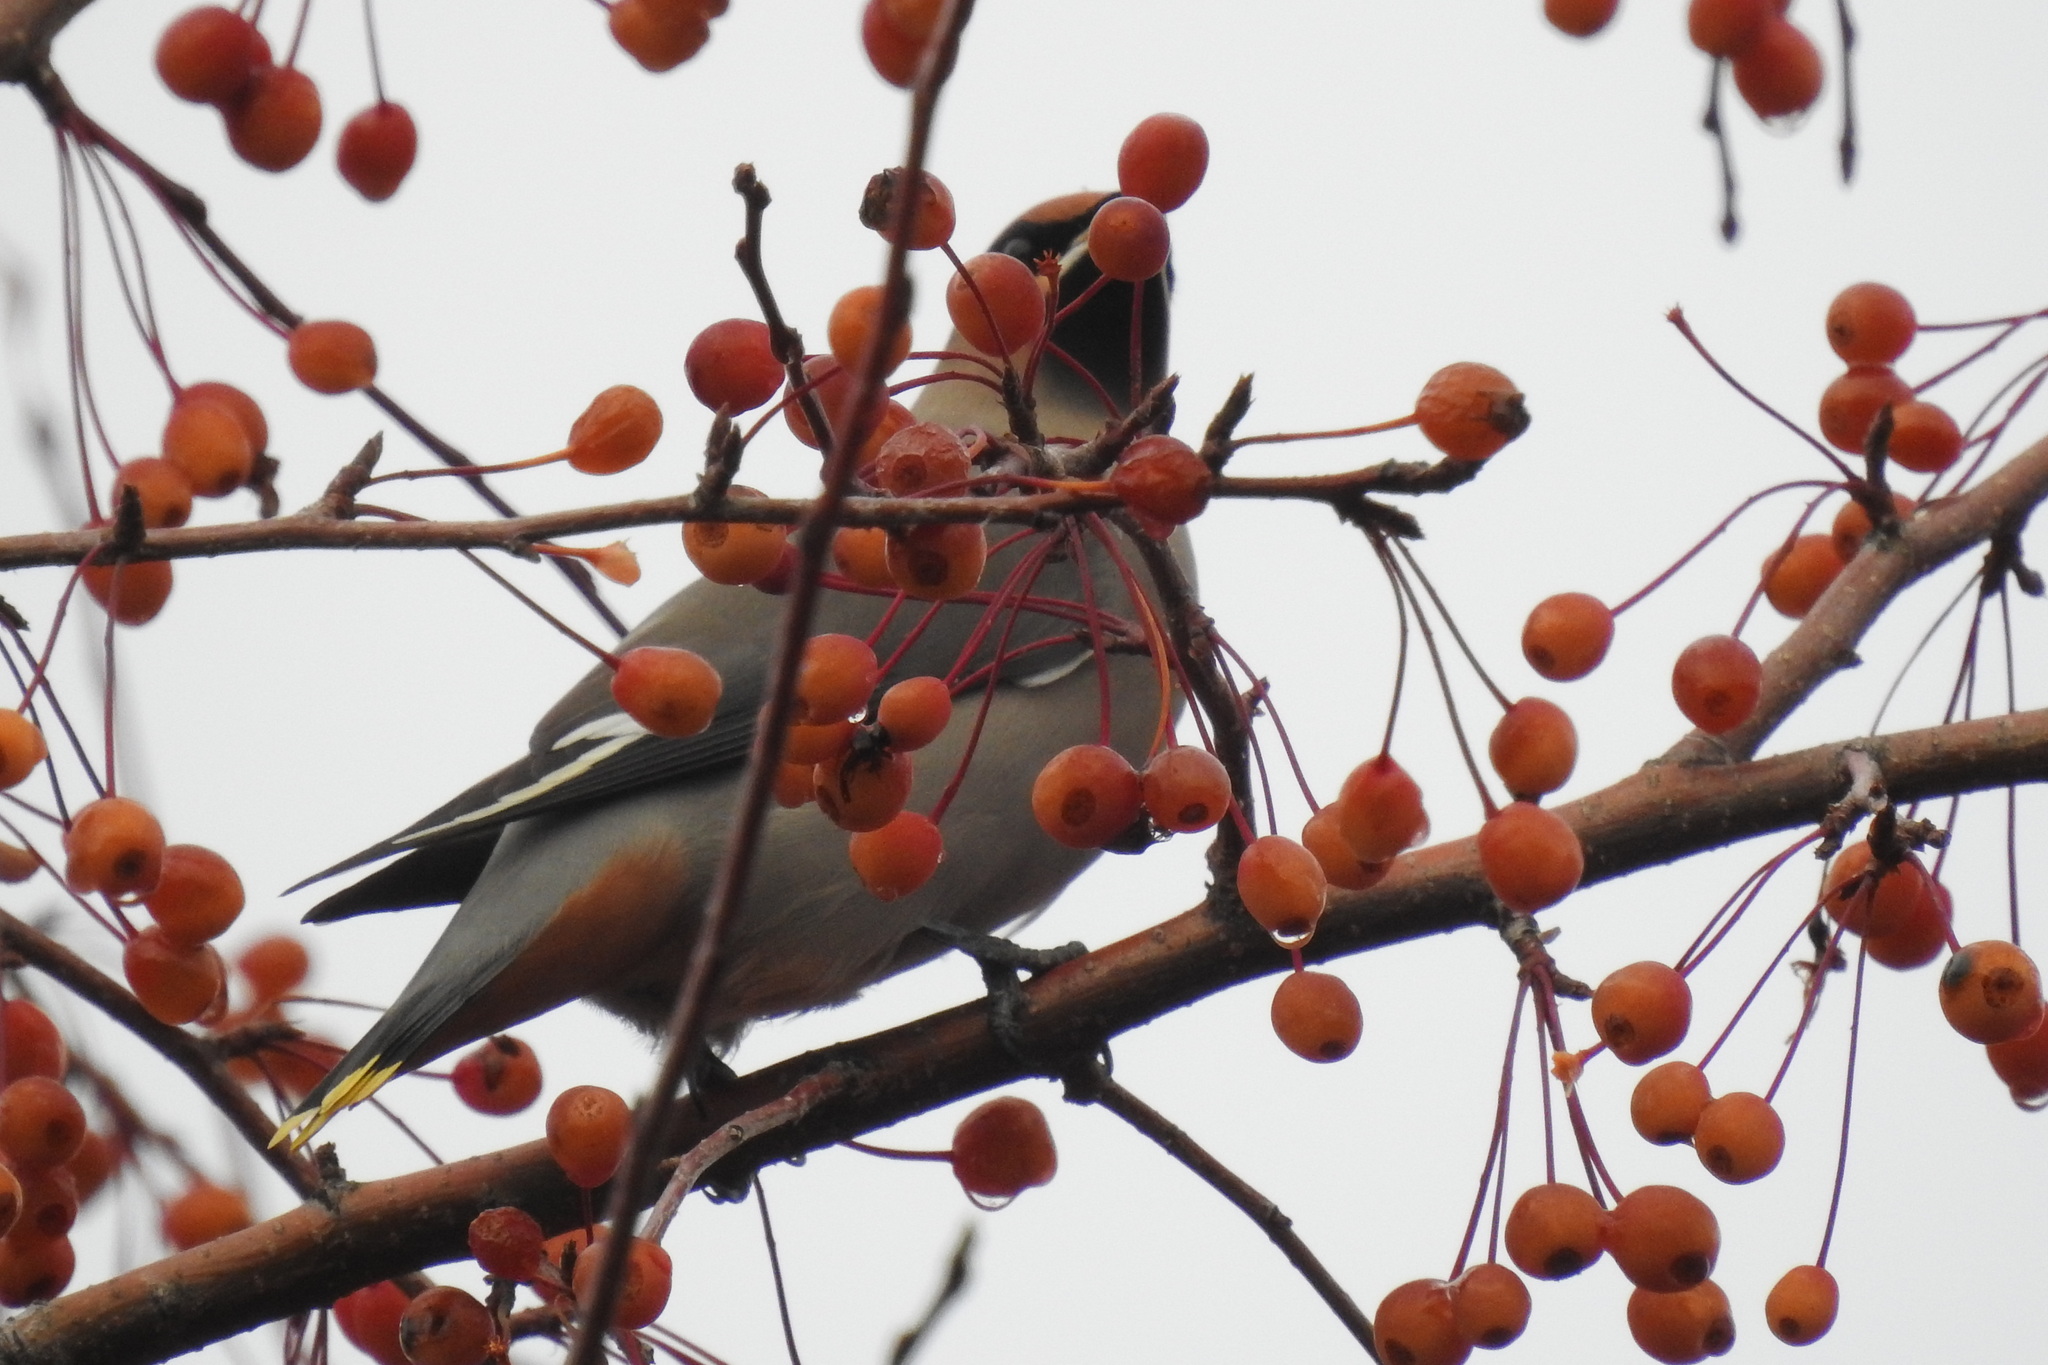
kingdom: Animalia
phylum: Chordata
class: Aves
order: Passeriformes
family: Bombycillidae
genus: Bombycilla
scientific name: Bombycilla garrulus
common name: Bohemian waxwing
